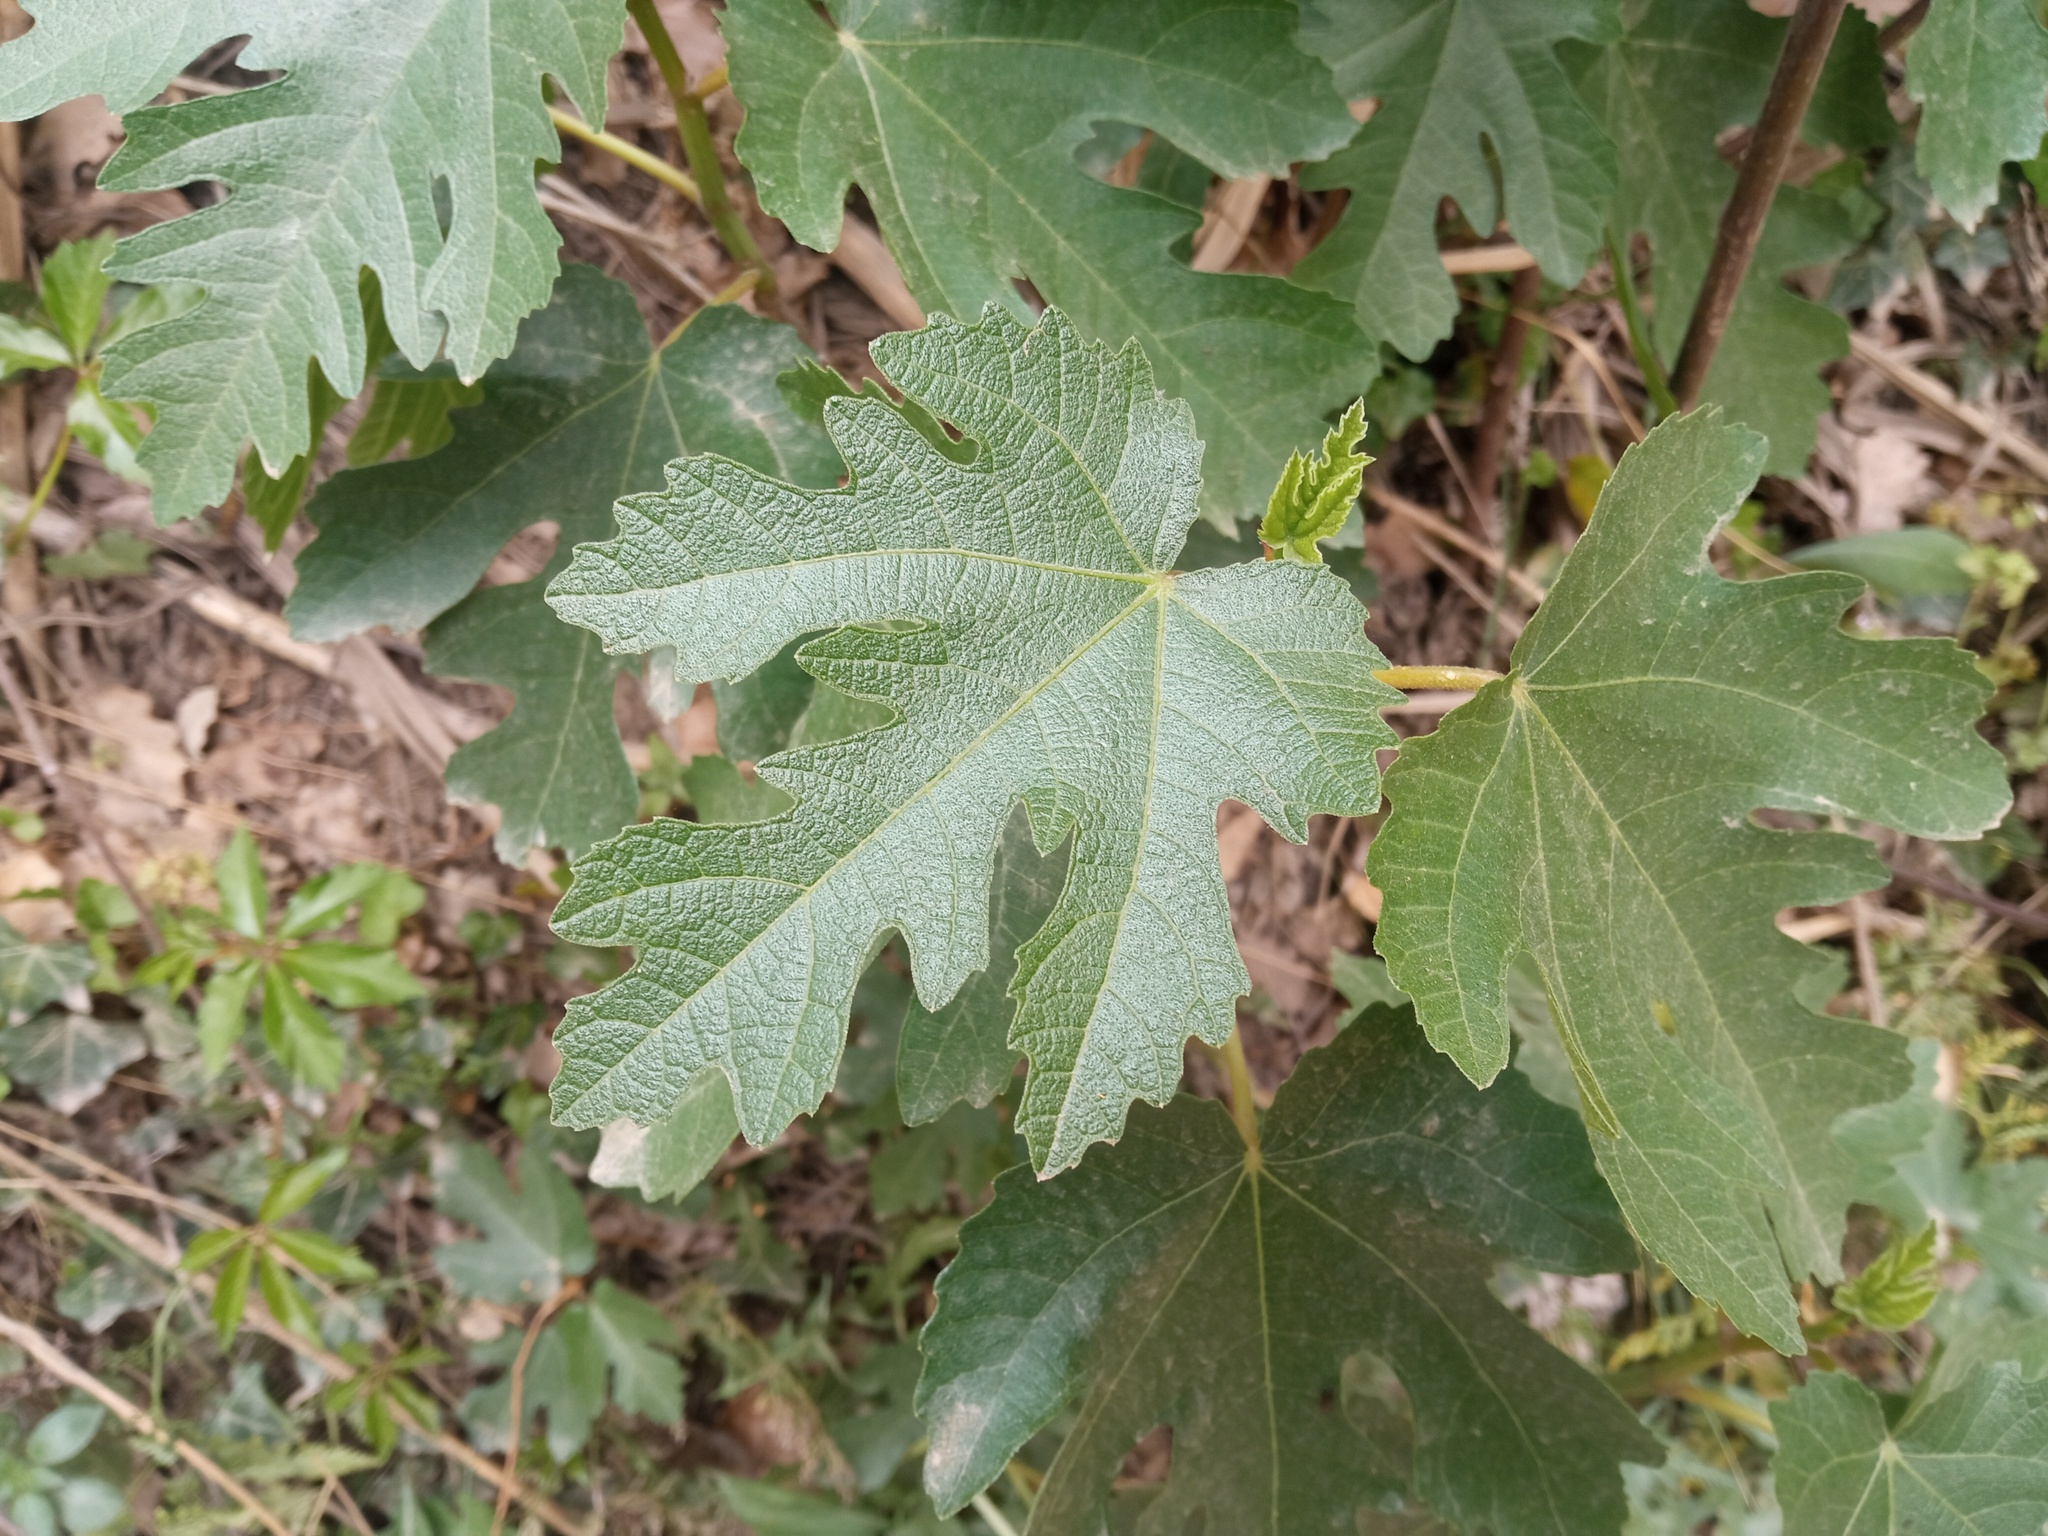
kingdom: Plantae
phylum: Tracheophyta
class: Magnoliopsida
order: Rosales
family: Moraceae
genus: Ficus
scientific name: Ficus carica
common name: Fig
